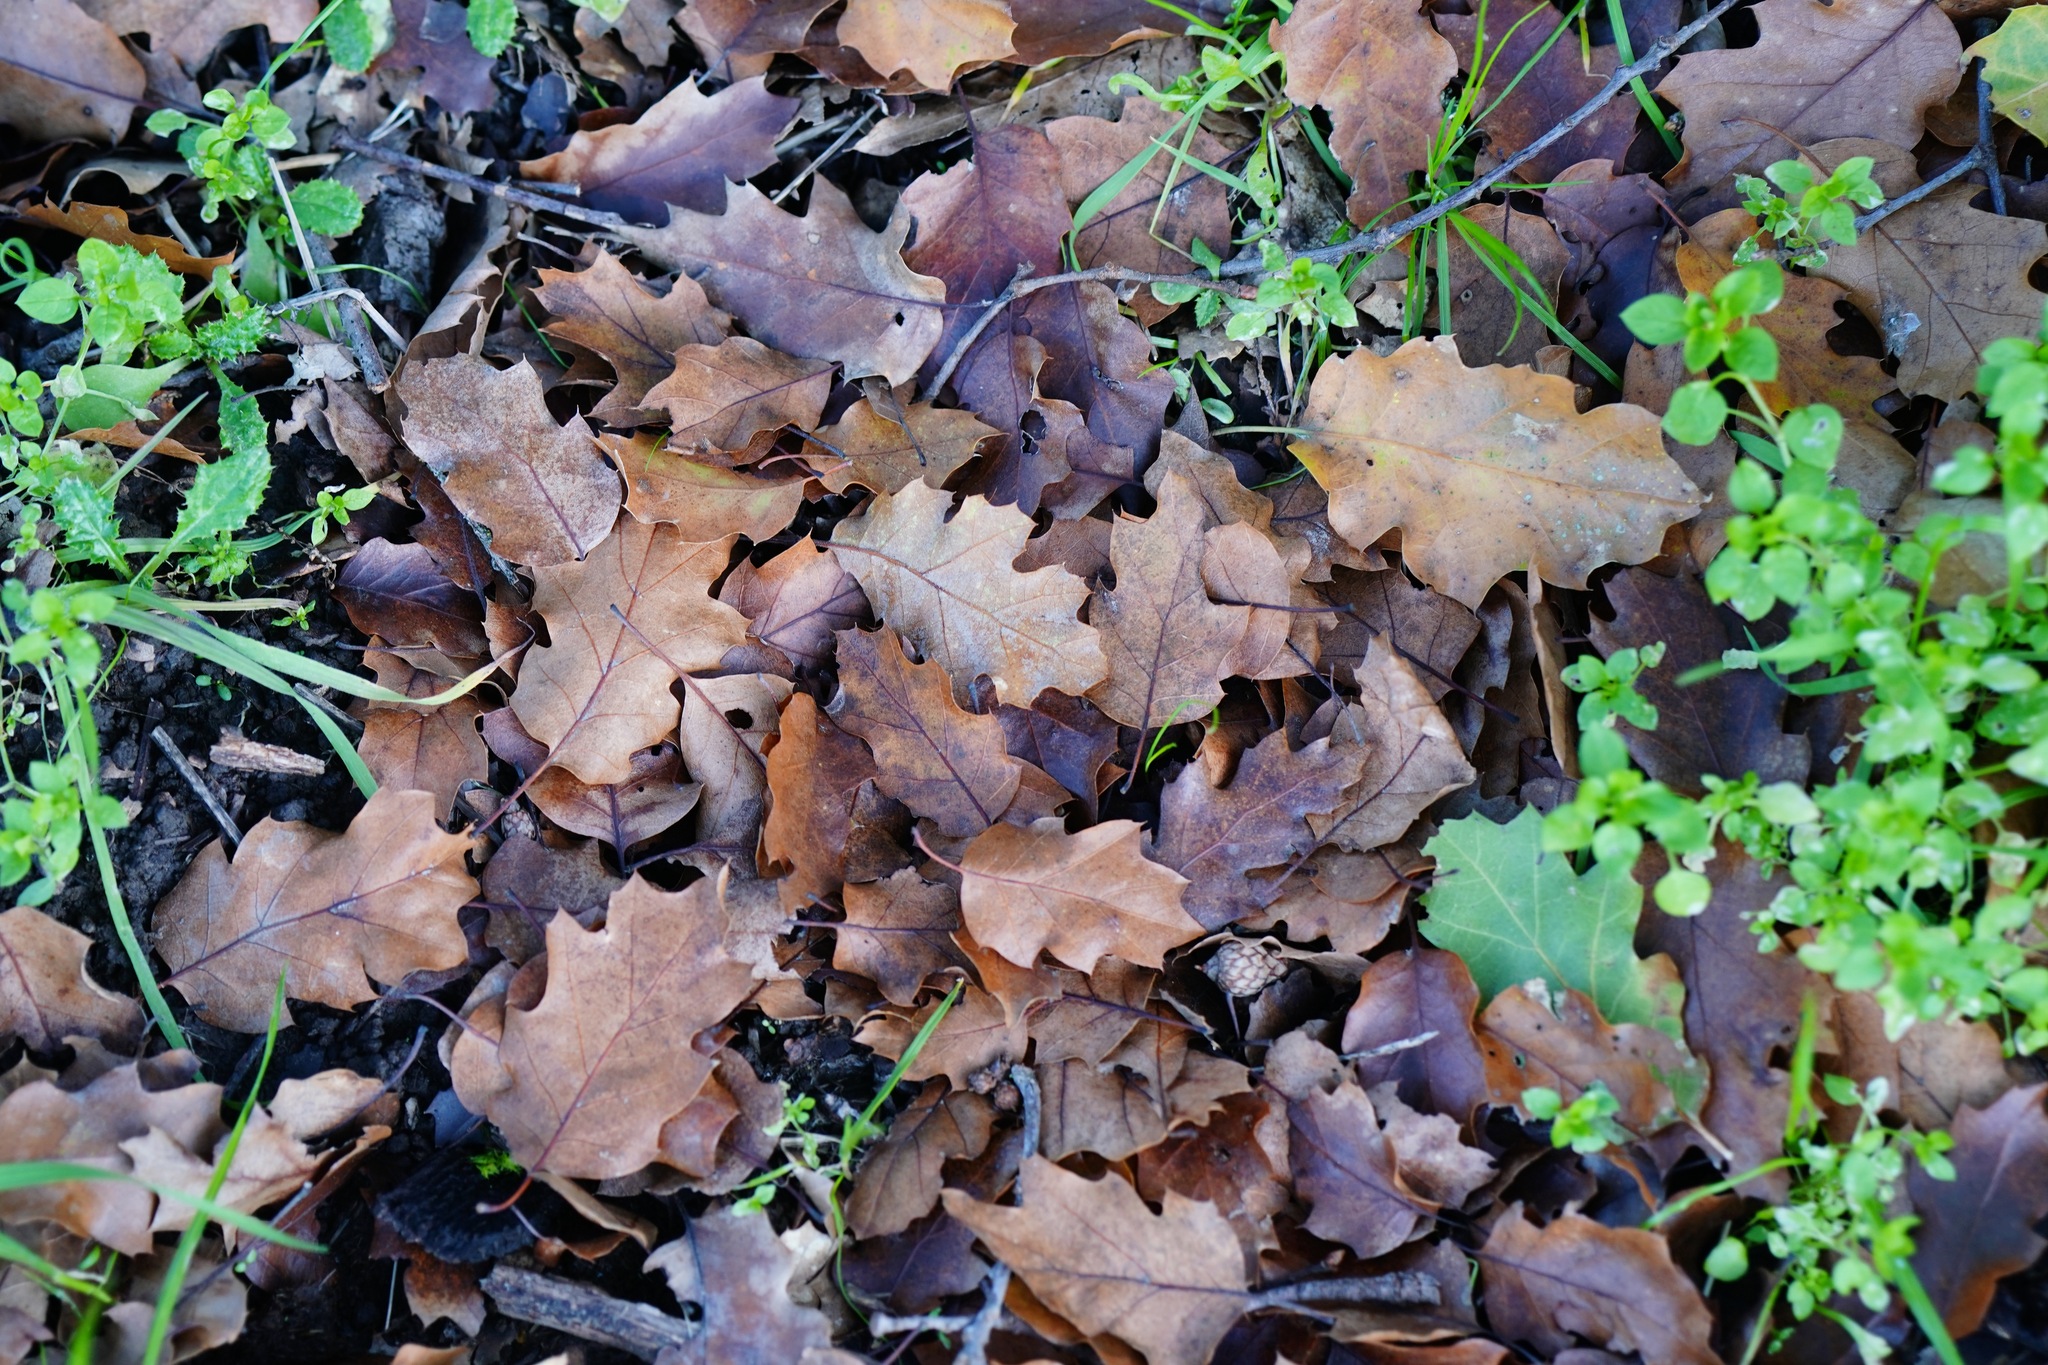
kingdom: Plantae
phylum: Tracheophyta
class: Magnoliopsida
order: Fagales
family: Fagaceae
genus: Quercus
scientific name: Quercus morehus
